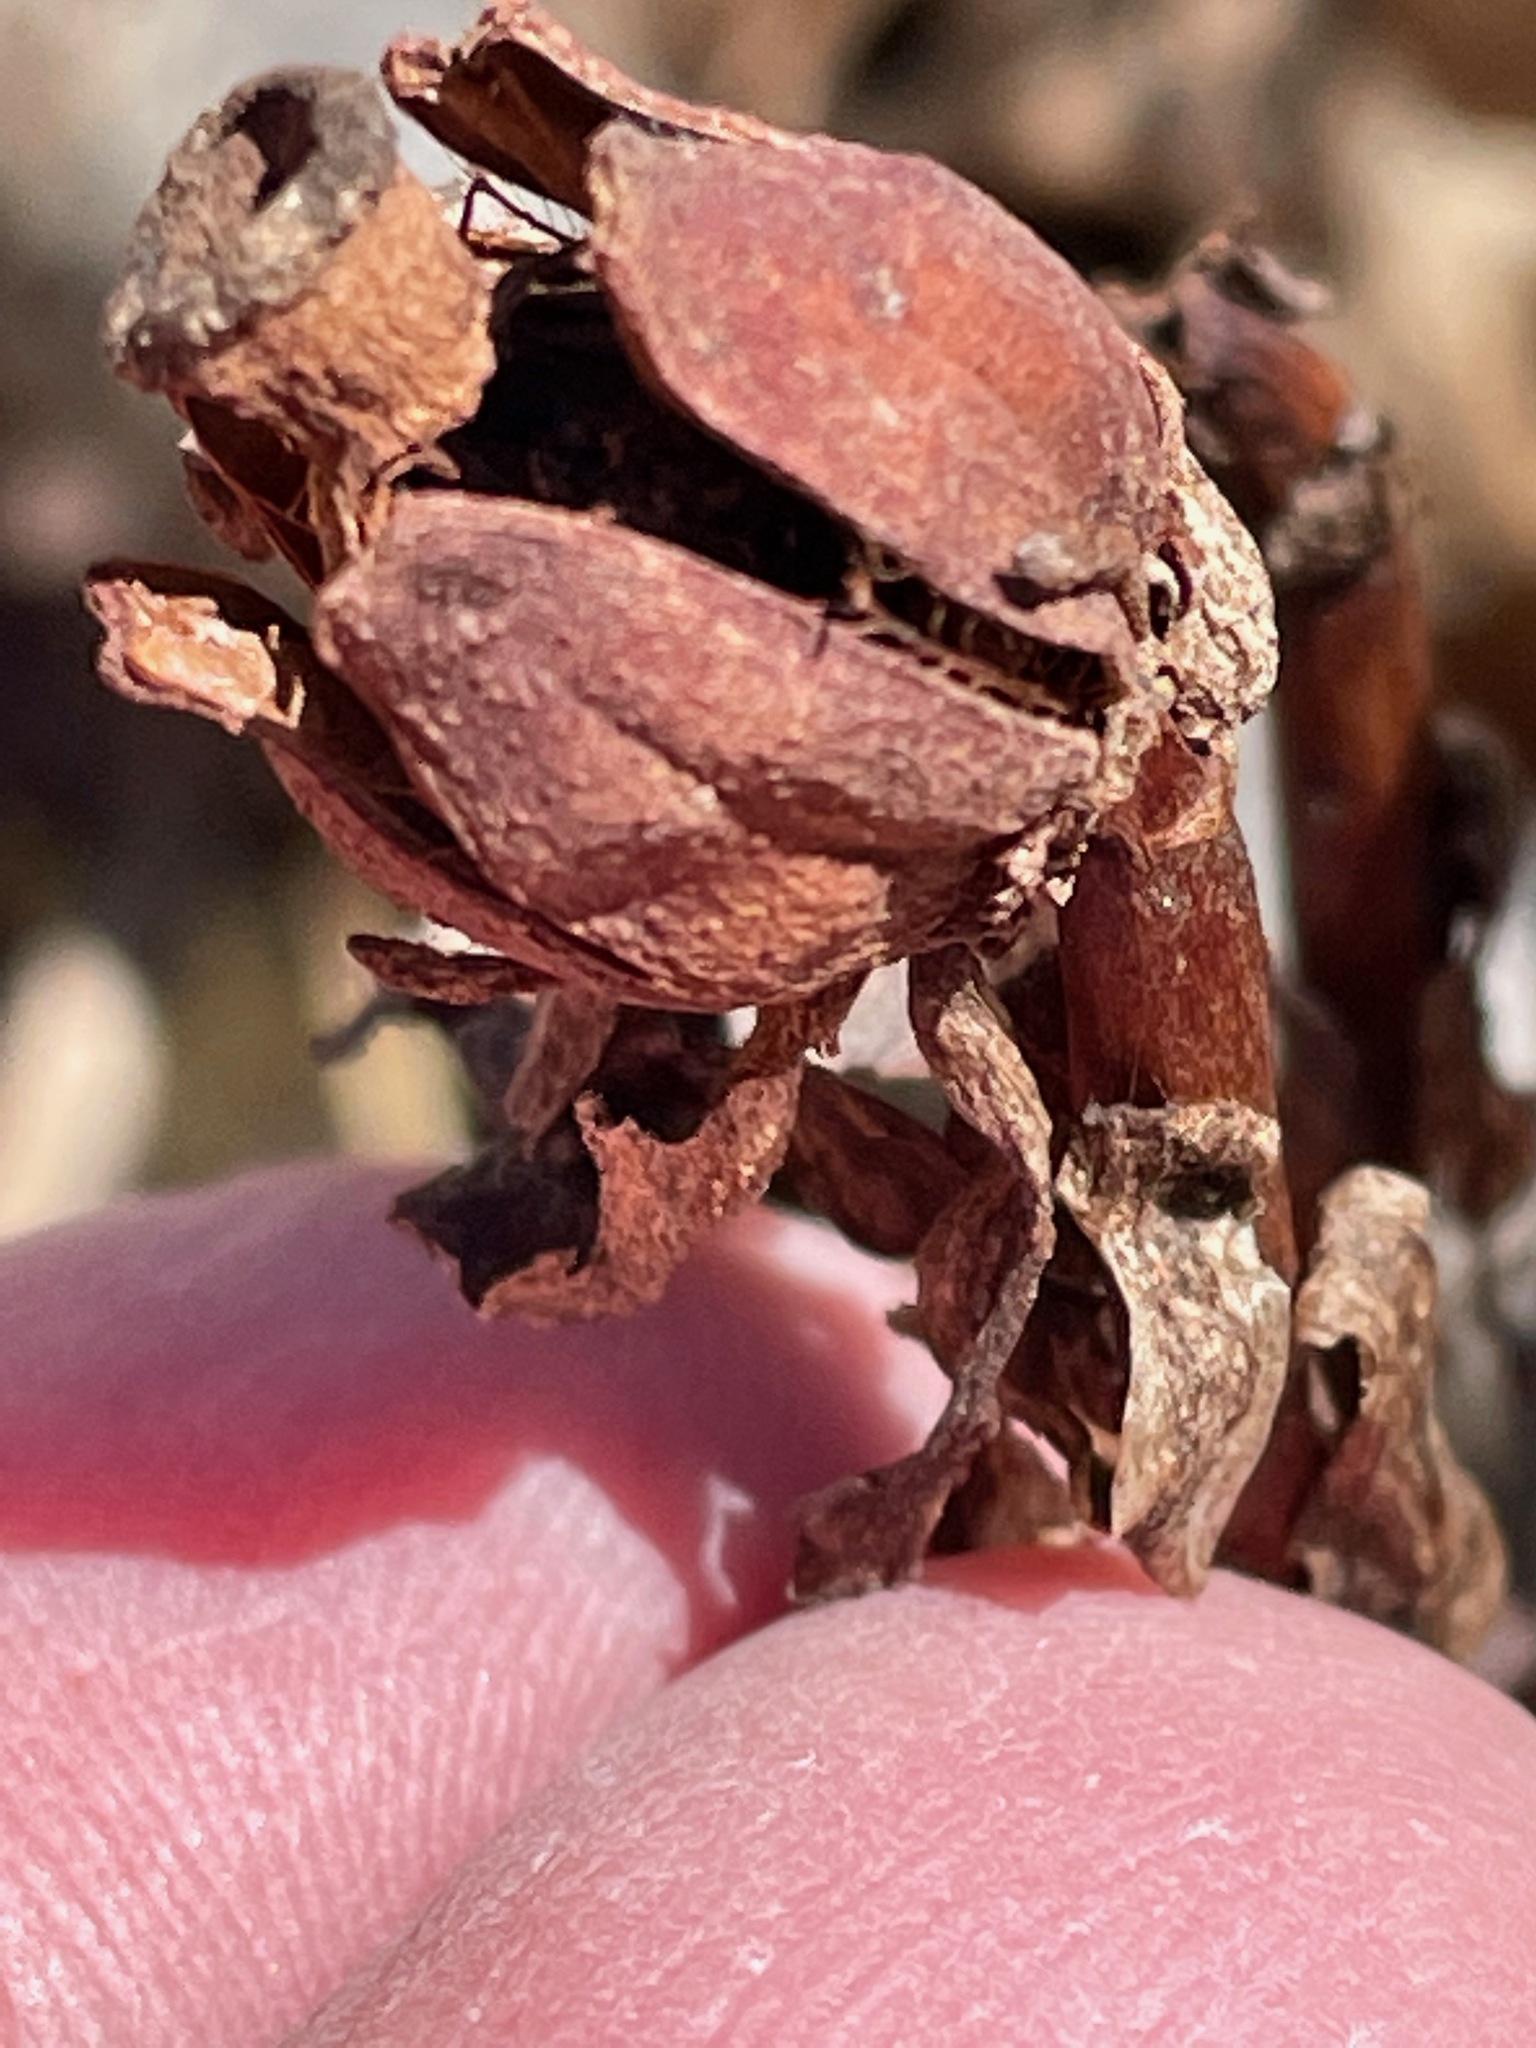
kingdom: Plantae
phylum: Tracheophyta
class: Magnoliopsida
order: Ericales
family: Ericaceae
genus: Monotropa
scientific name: Monotropa uniflora
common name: Convulsion root
